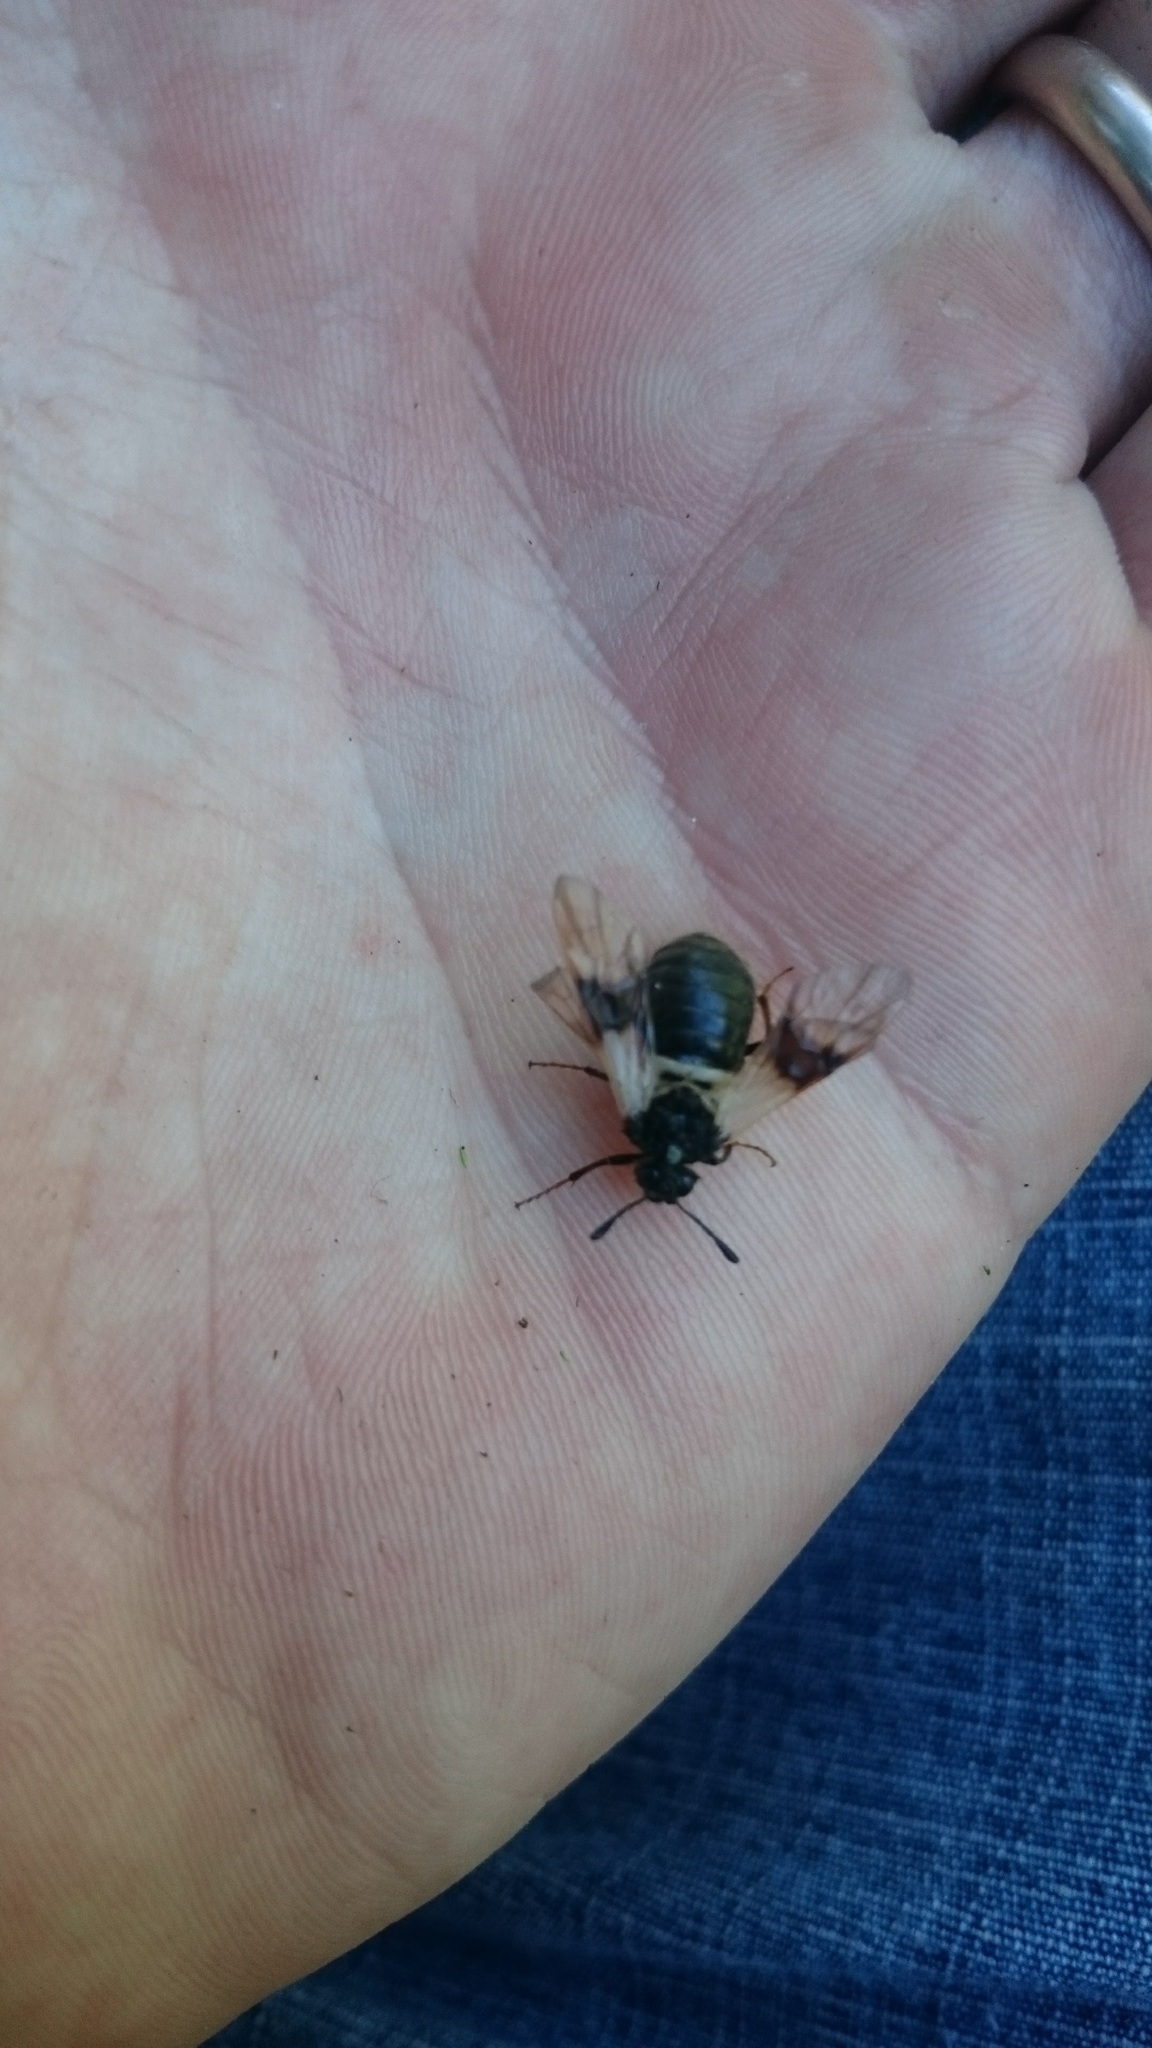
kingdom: Animalia
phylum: Arthropoda
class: Insecta
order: Hymenoptera
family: Cimbicidae
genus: Abia
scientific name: Abia fasciata
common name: Banded honeysuckle sawfly
